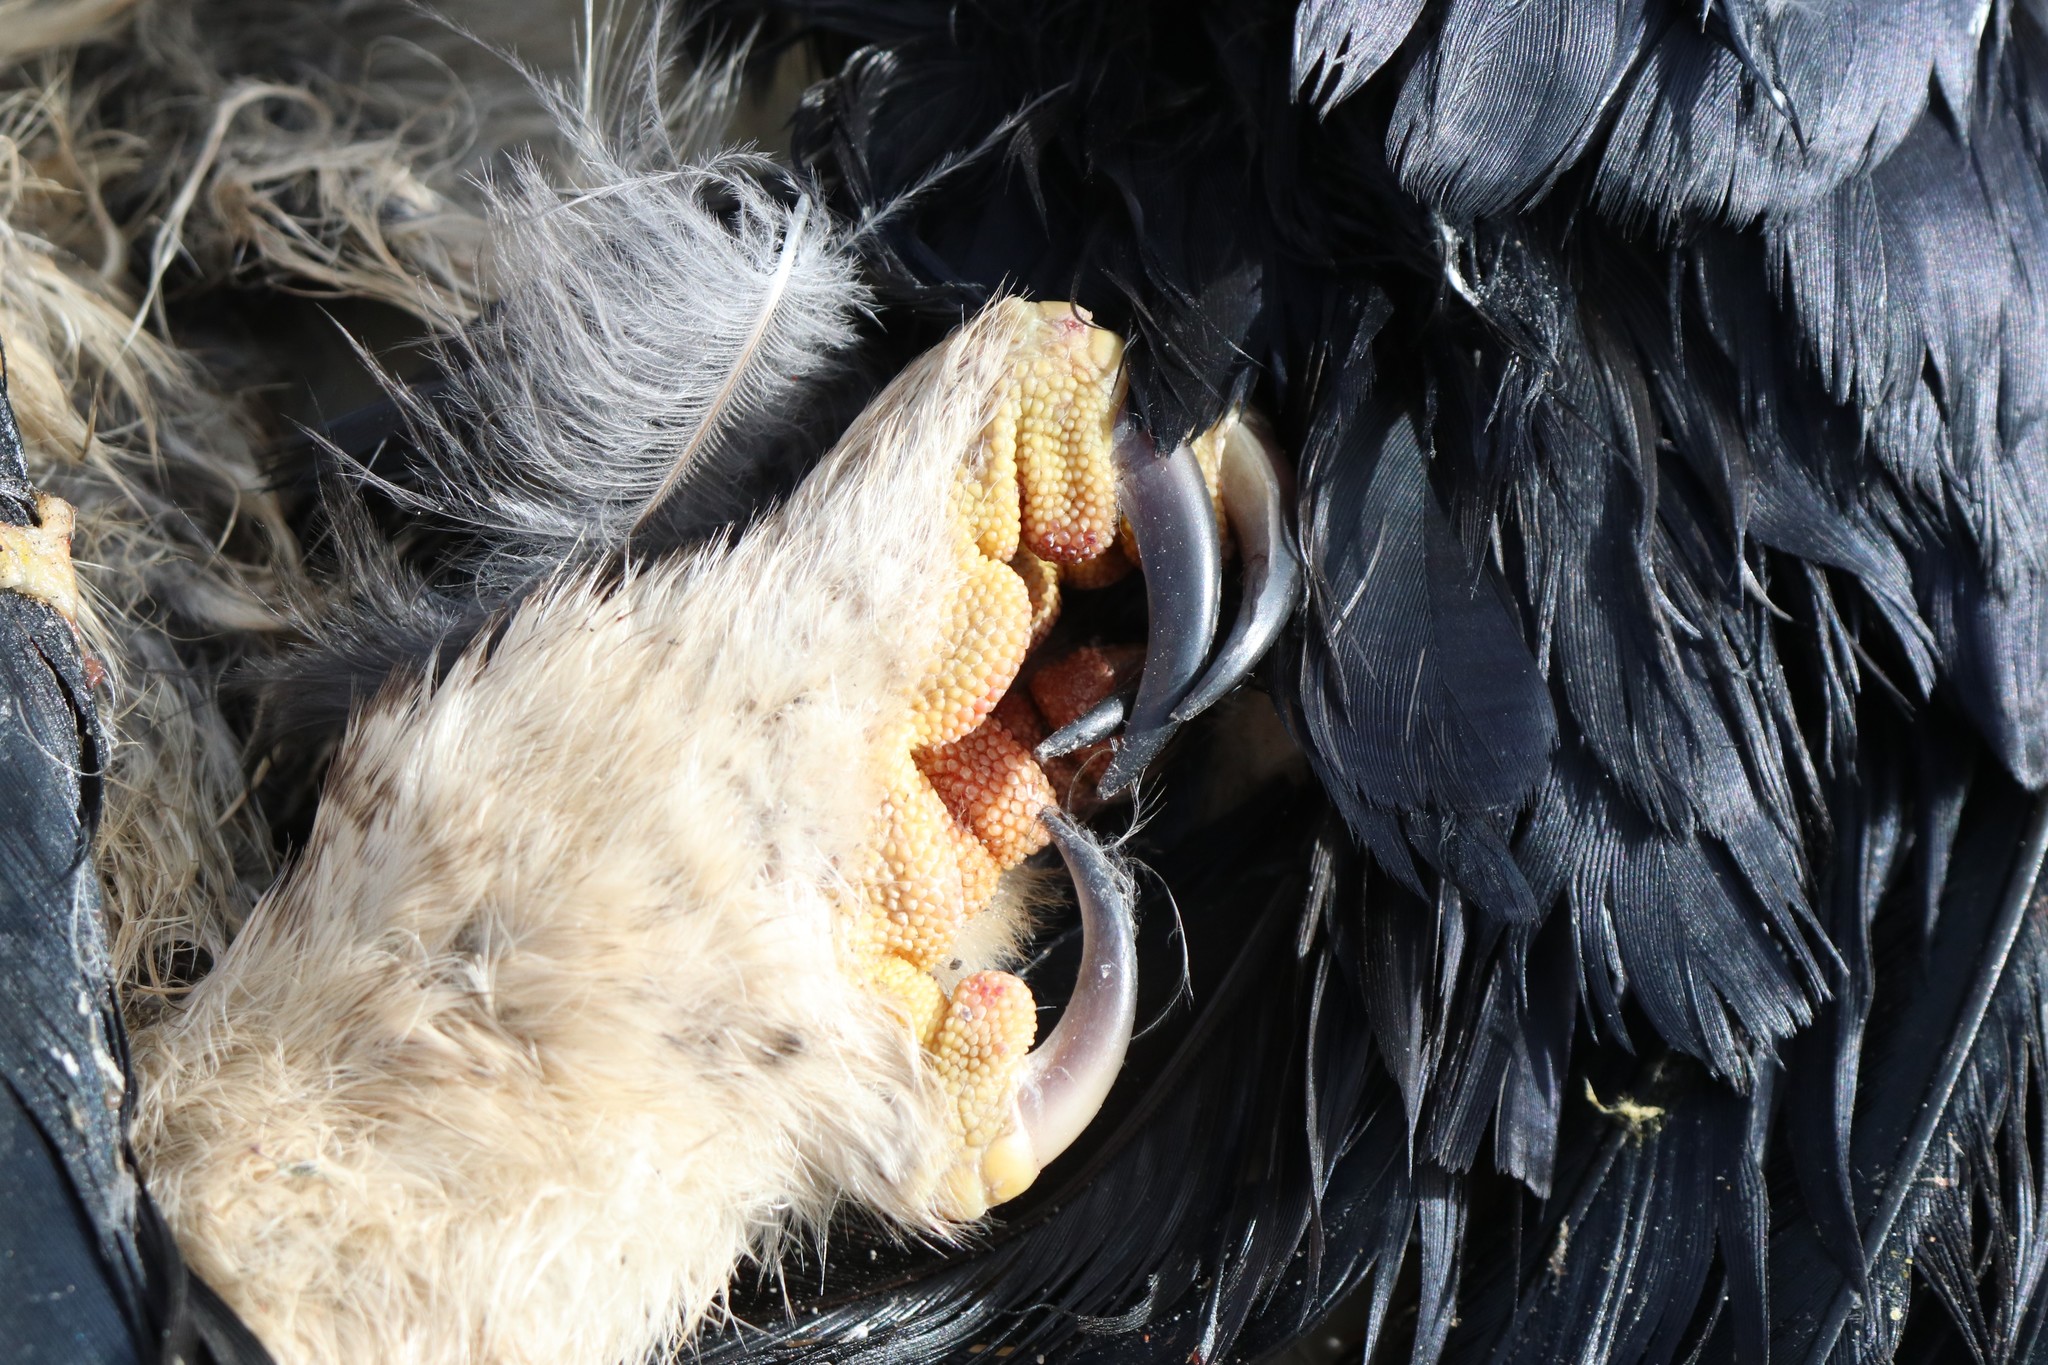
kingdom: Animalia
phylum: Chordata
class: Aves
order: Strigiformes
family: Strigidae
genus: Strix
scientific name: Strix varia
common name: Barred owl
